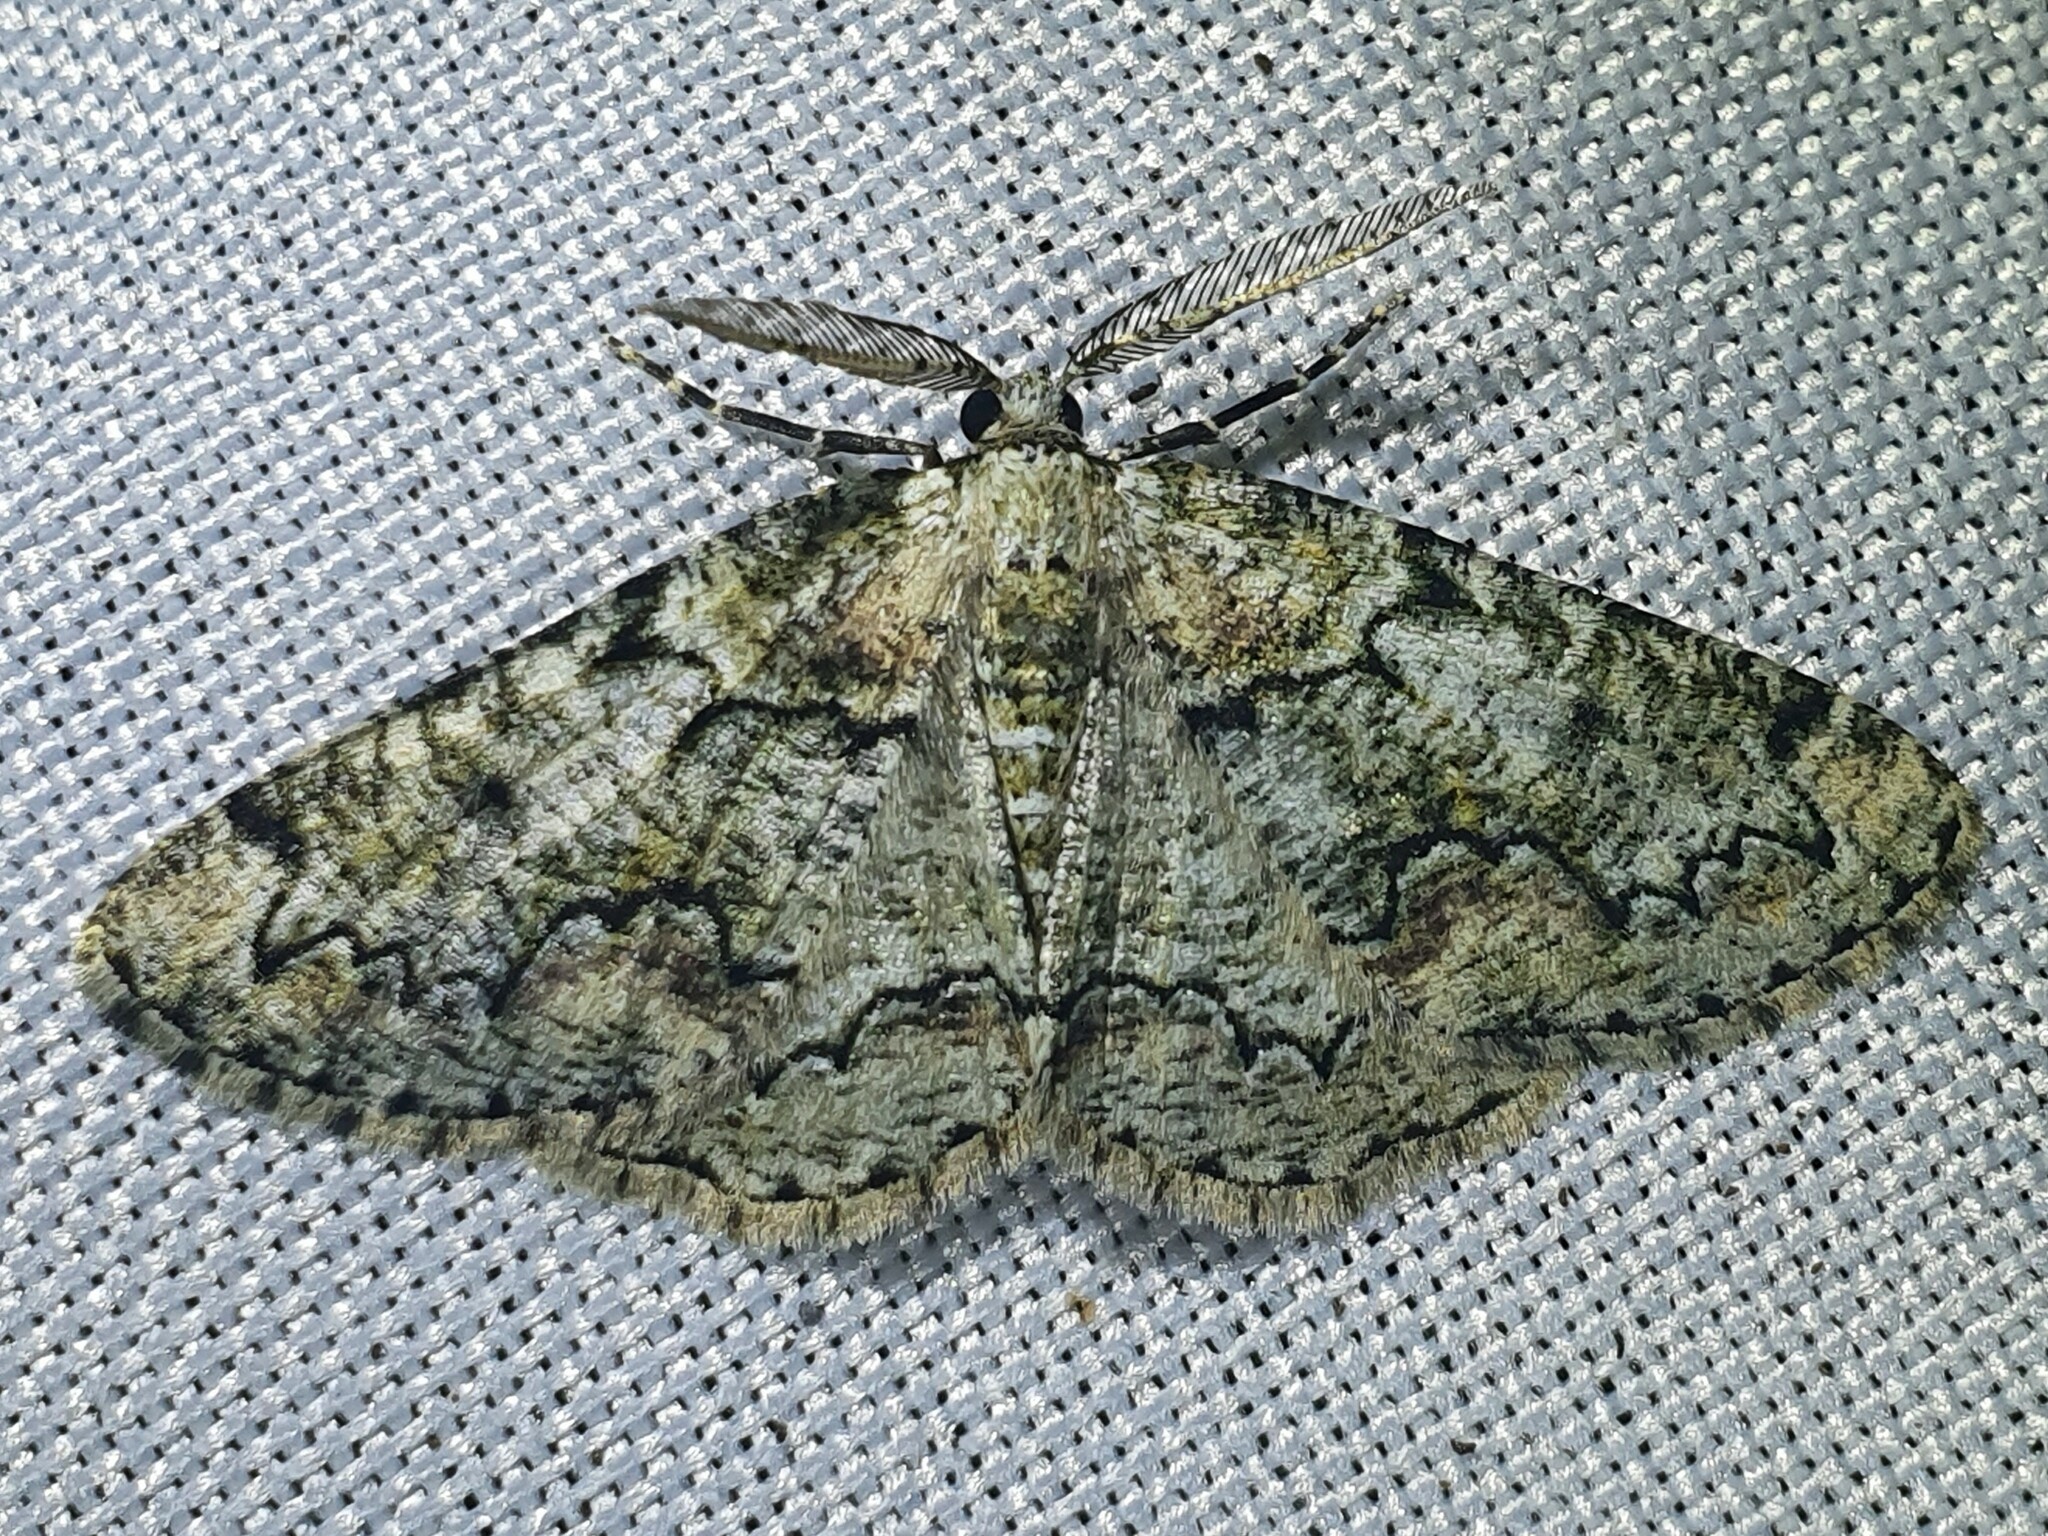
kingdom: Animalia
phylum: Arthropoda
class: Insecta
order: Lepidoptera
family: Geometridae
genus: Cleorodes
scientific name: Cleorodes lichenaria
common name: Brussels lace
